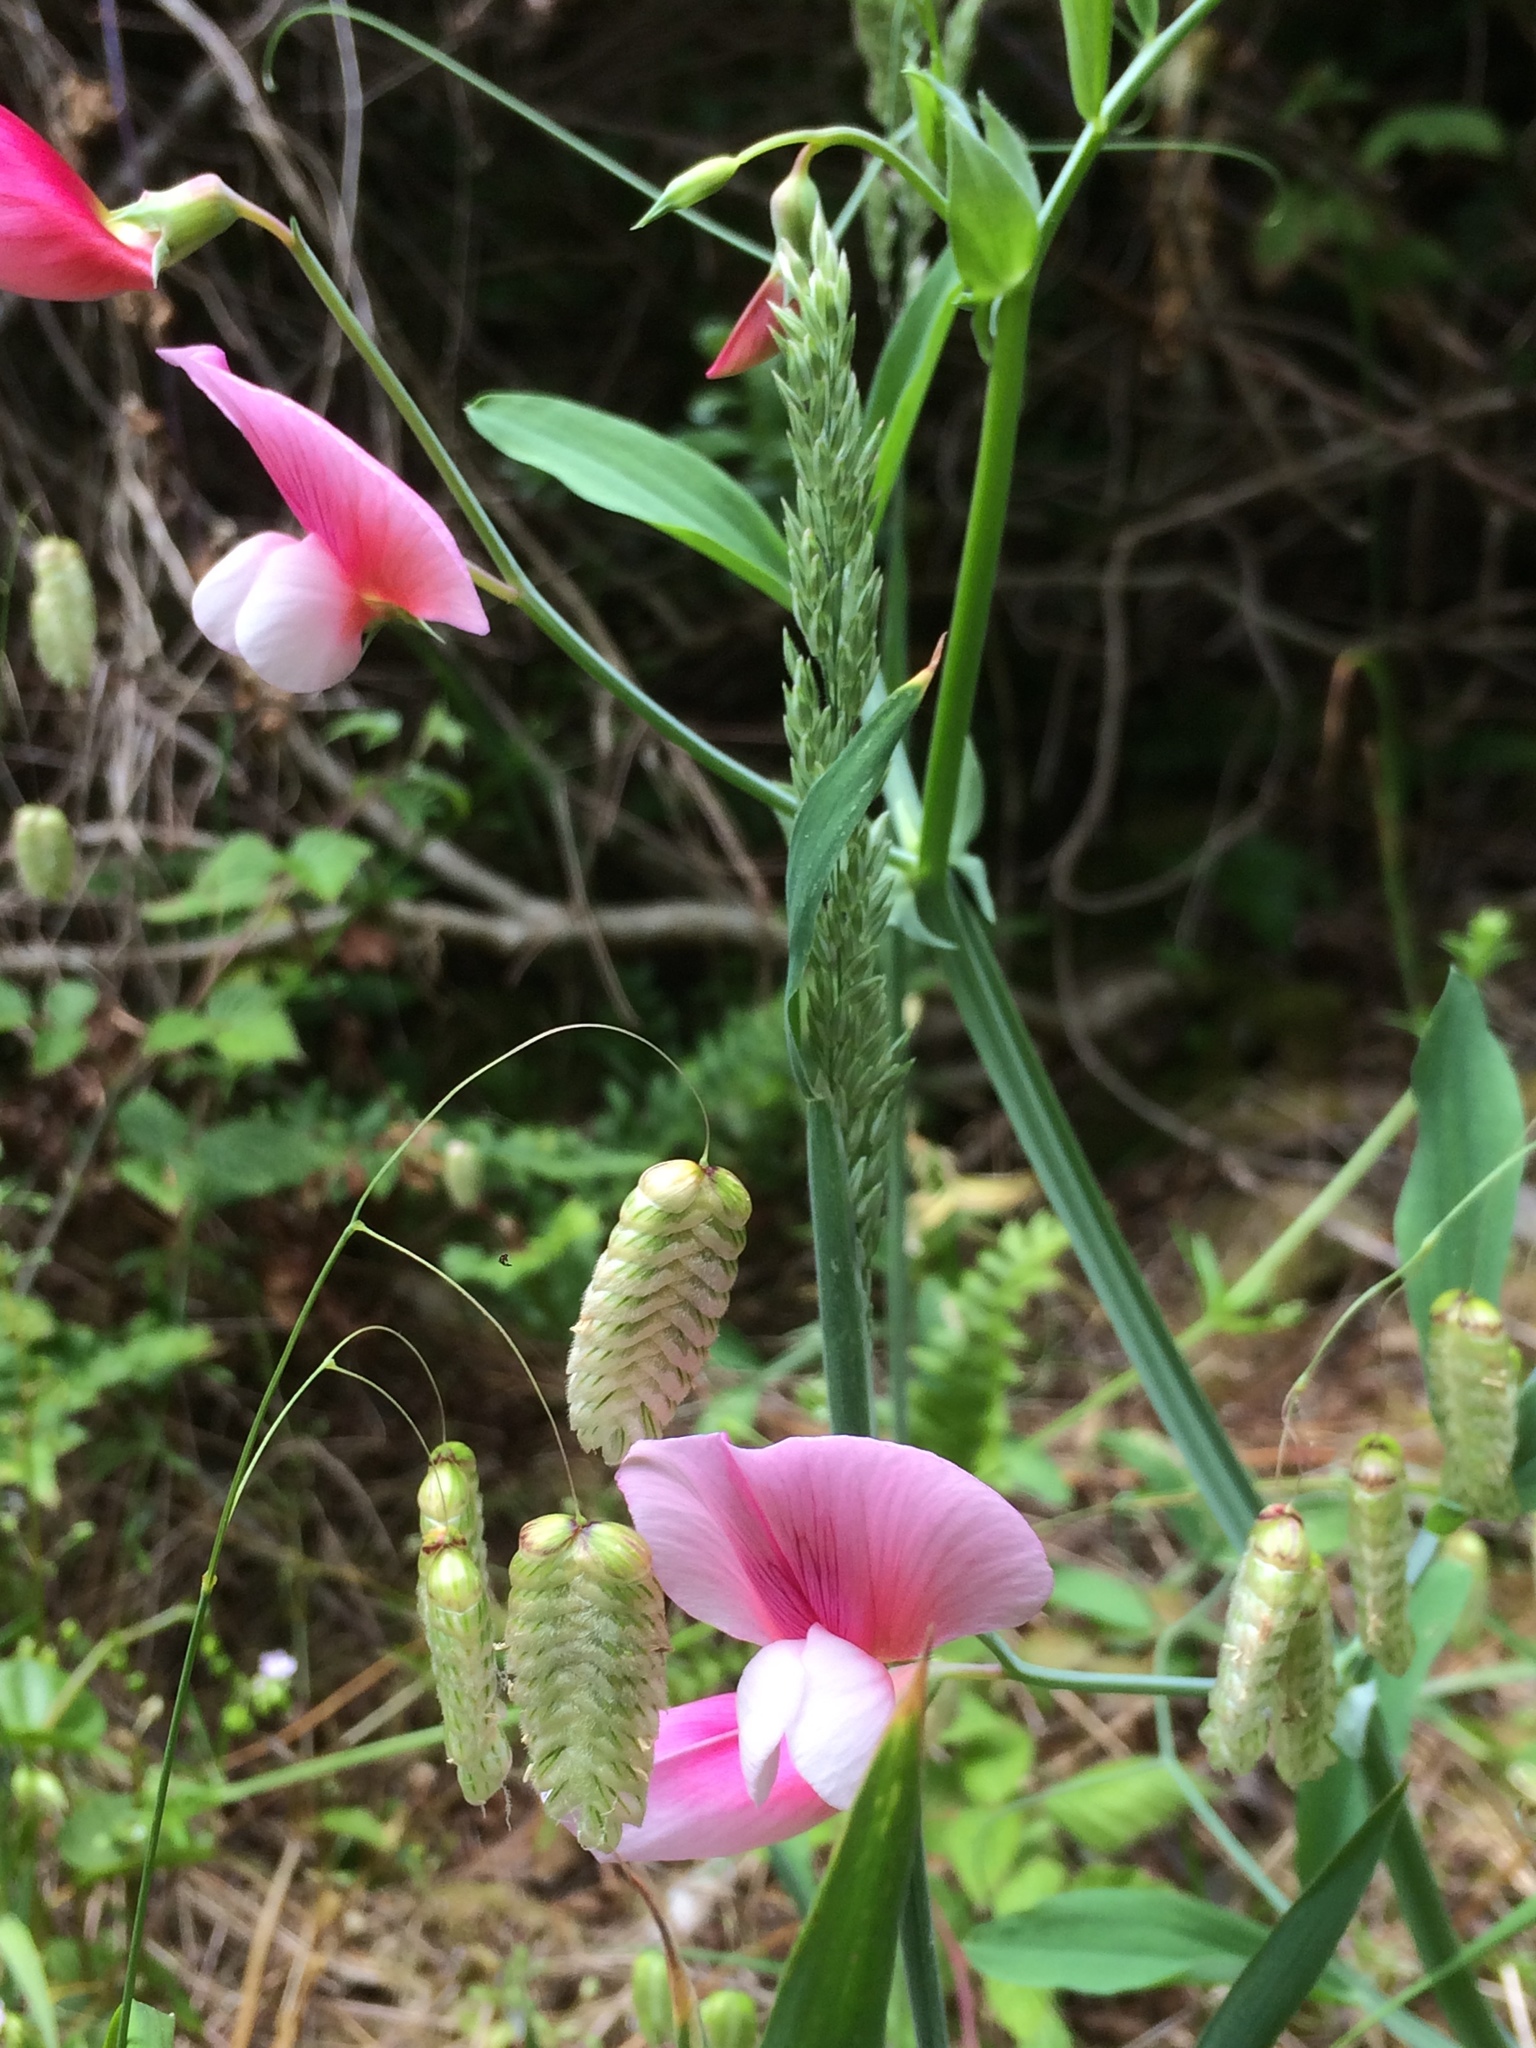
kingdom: Plantae
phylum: Tracheophyta
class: Magnoliopsida
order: Fabales
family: Fabaceae
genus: Lathyrus
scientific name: Lathyrus latifolius
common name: Perennial pea
